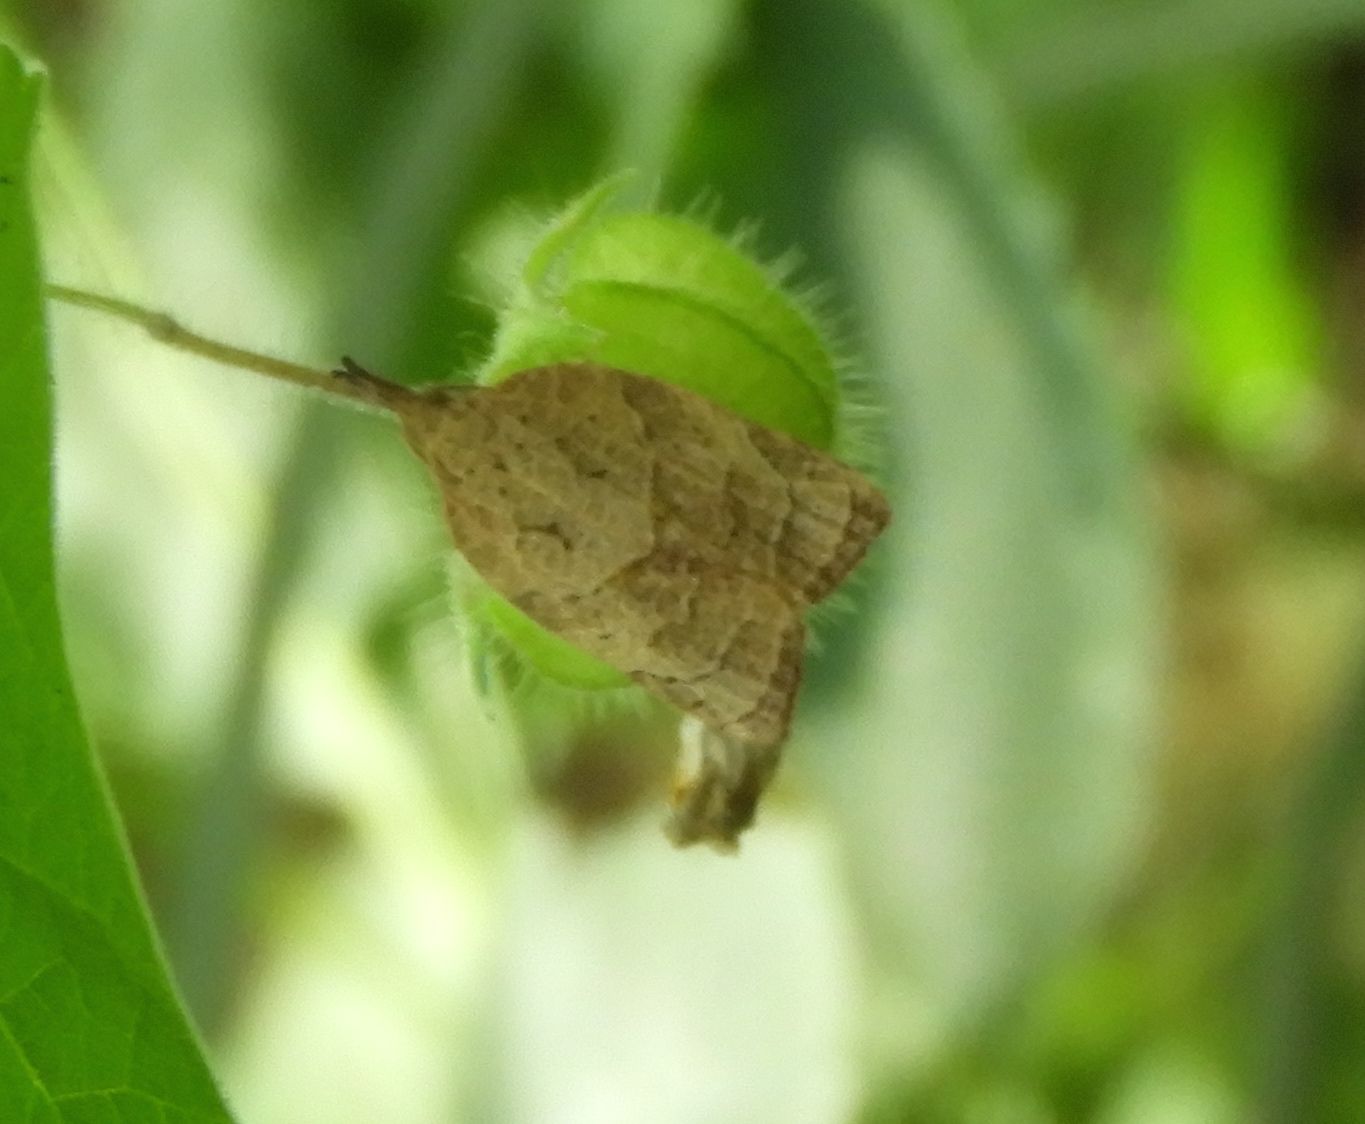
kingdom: Animalia
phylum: Arthropoda
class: Insecta
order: Lepidoptera
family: Tortricidae
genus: Platynota
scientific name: Platynota
